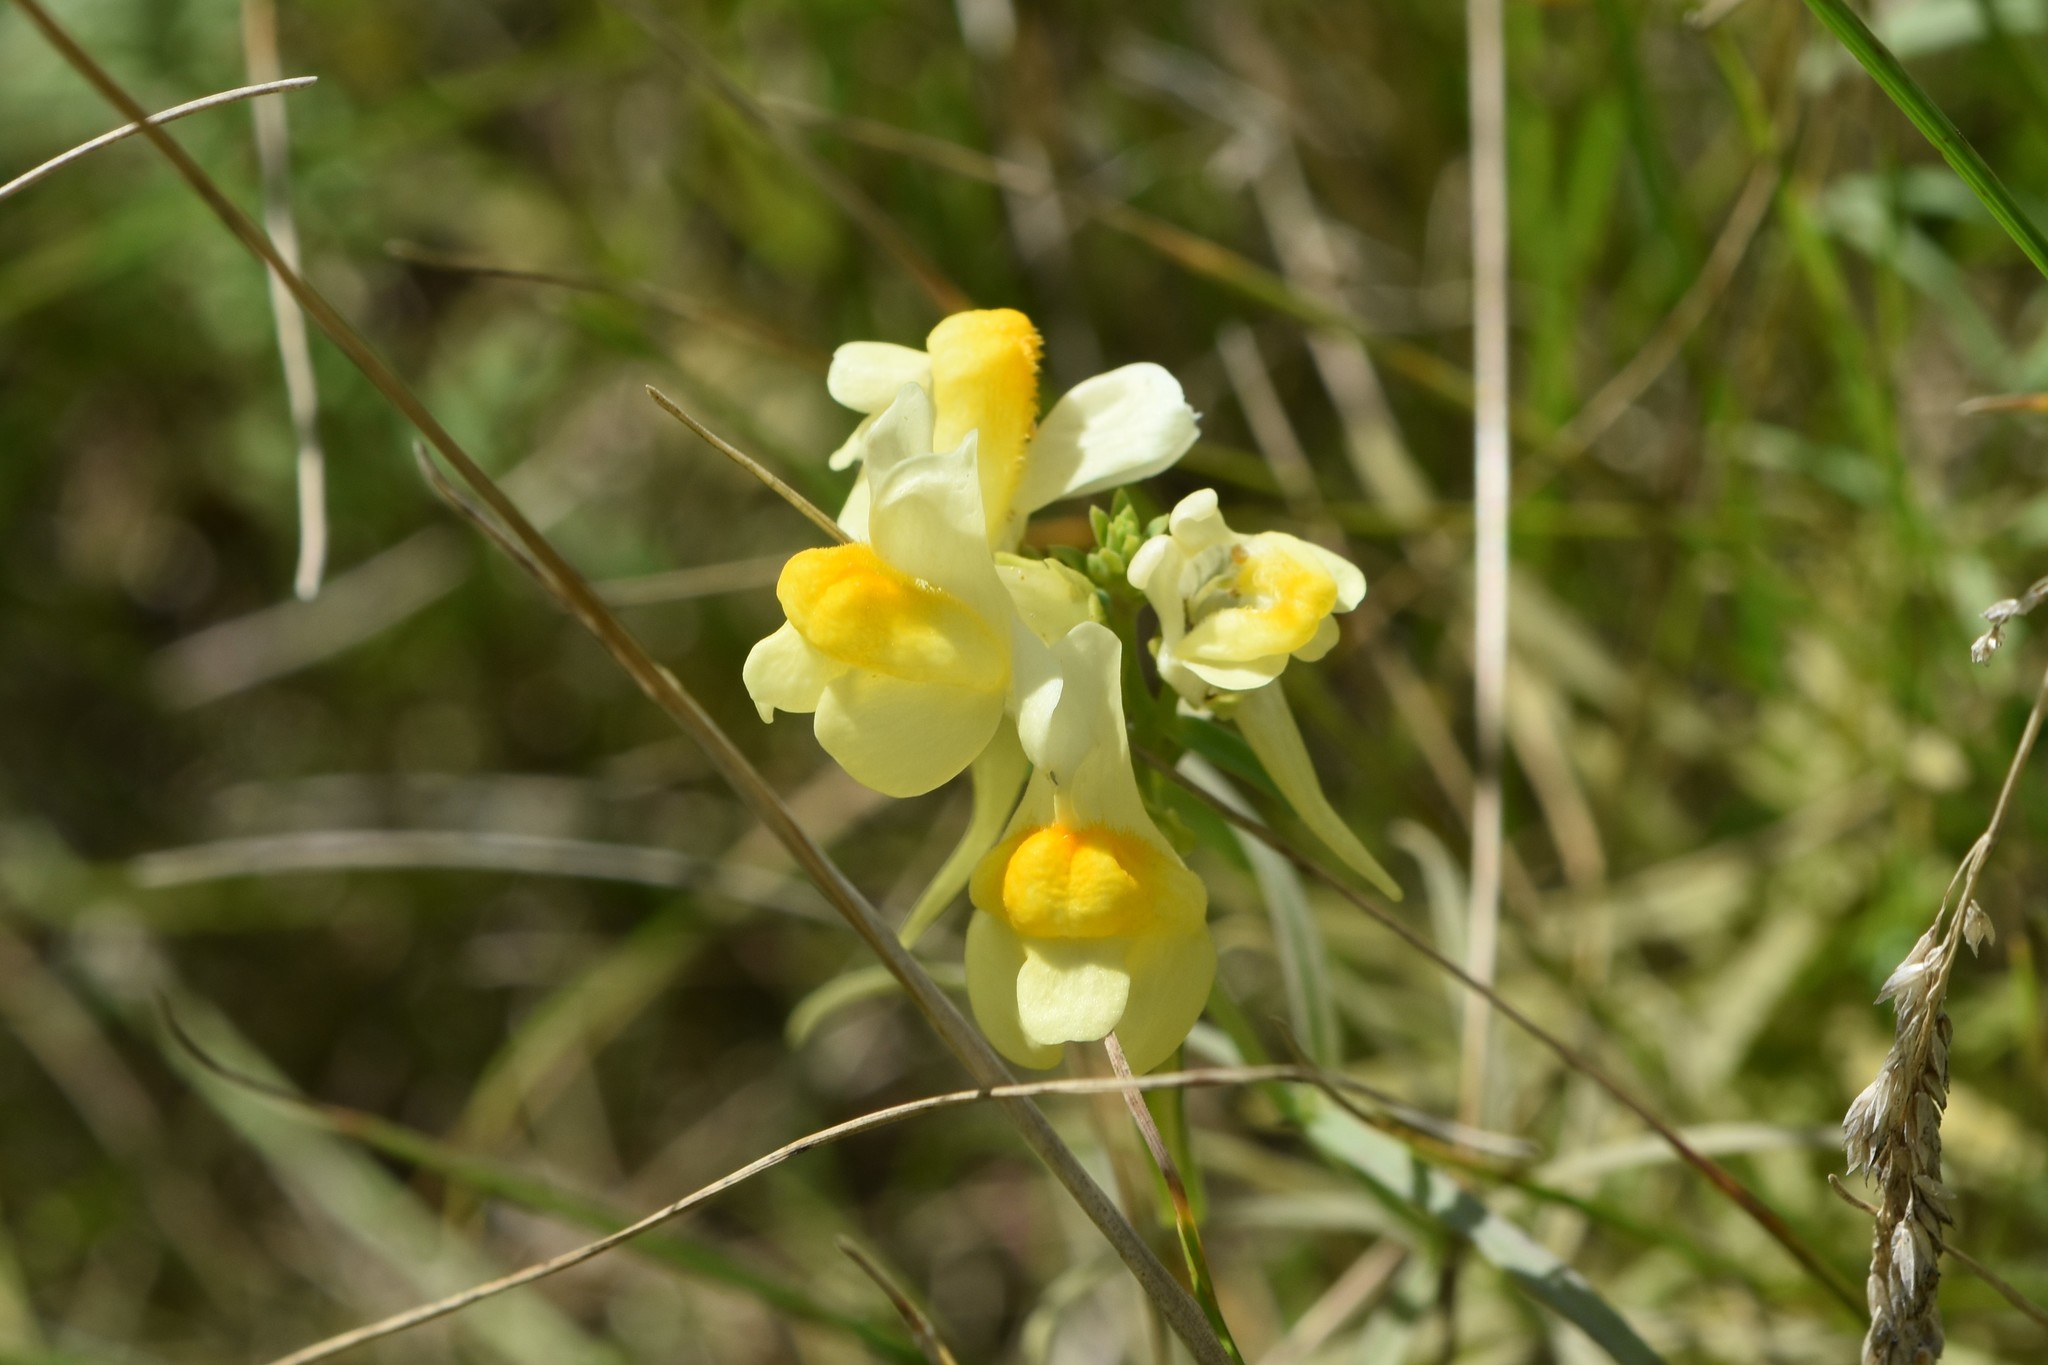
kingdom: Plantae
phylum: Tracheophyta
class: Magnoliopsida
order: Lamiales
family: Plantaginaceae
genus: Linaria
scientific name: Linaria vulgaris
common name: Butter and eggs
